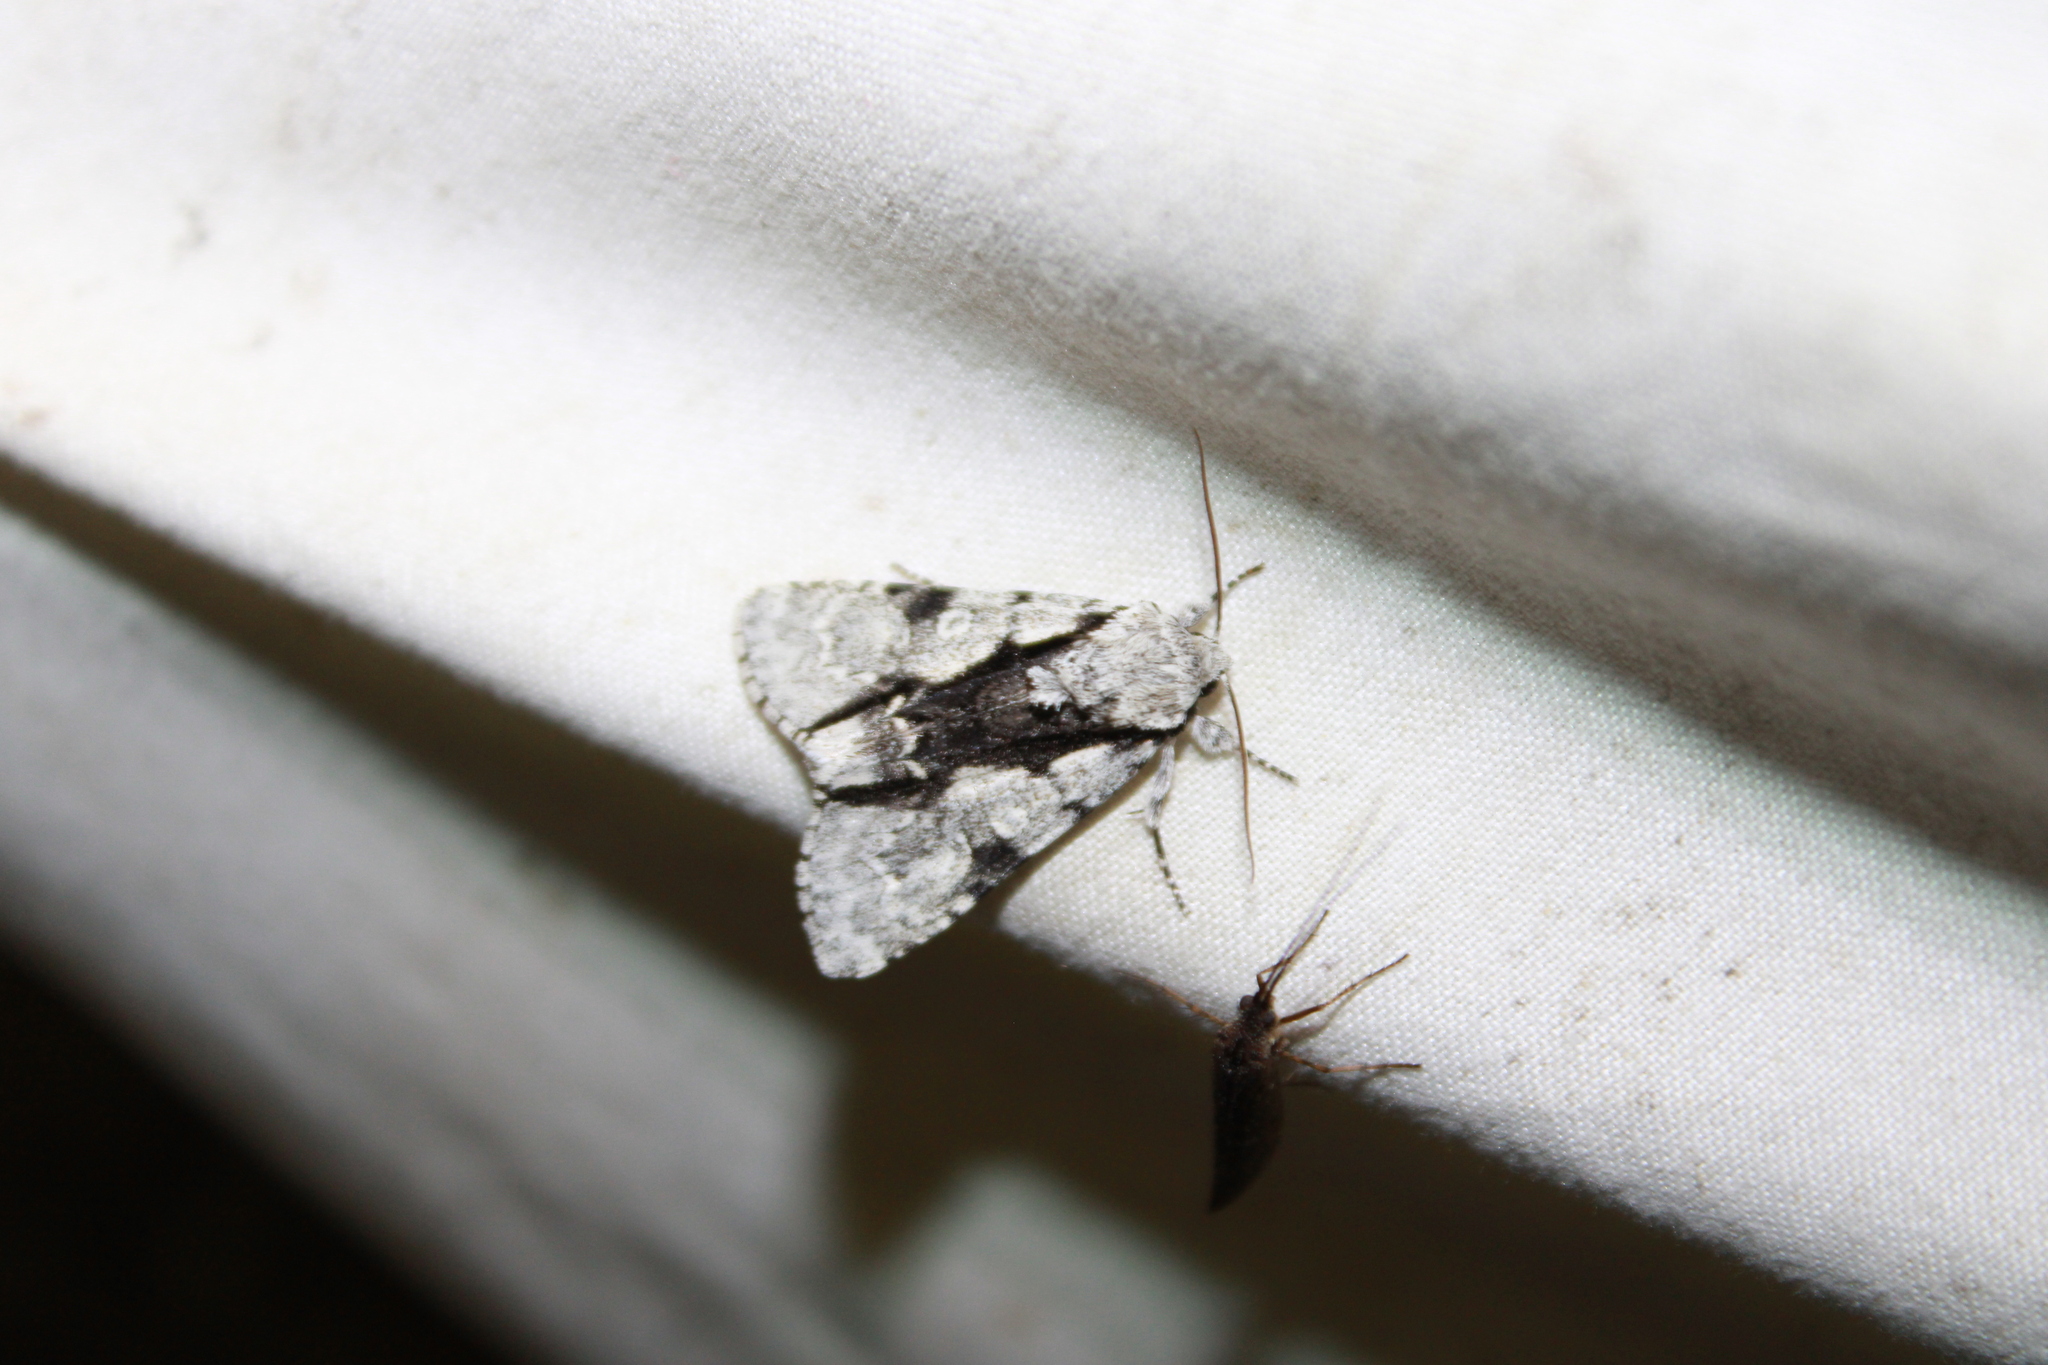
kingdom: Animalia
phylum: Arthropoda
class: Insecta
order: Lepidoptera
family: Noctuidae
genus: Acronicta
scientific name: Acronicta funeralis
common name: Funerary dagger
